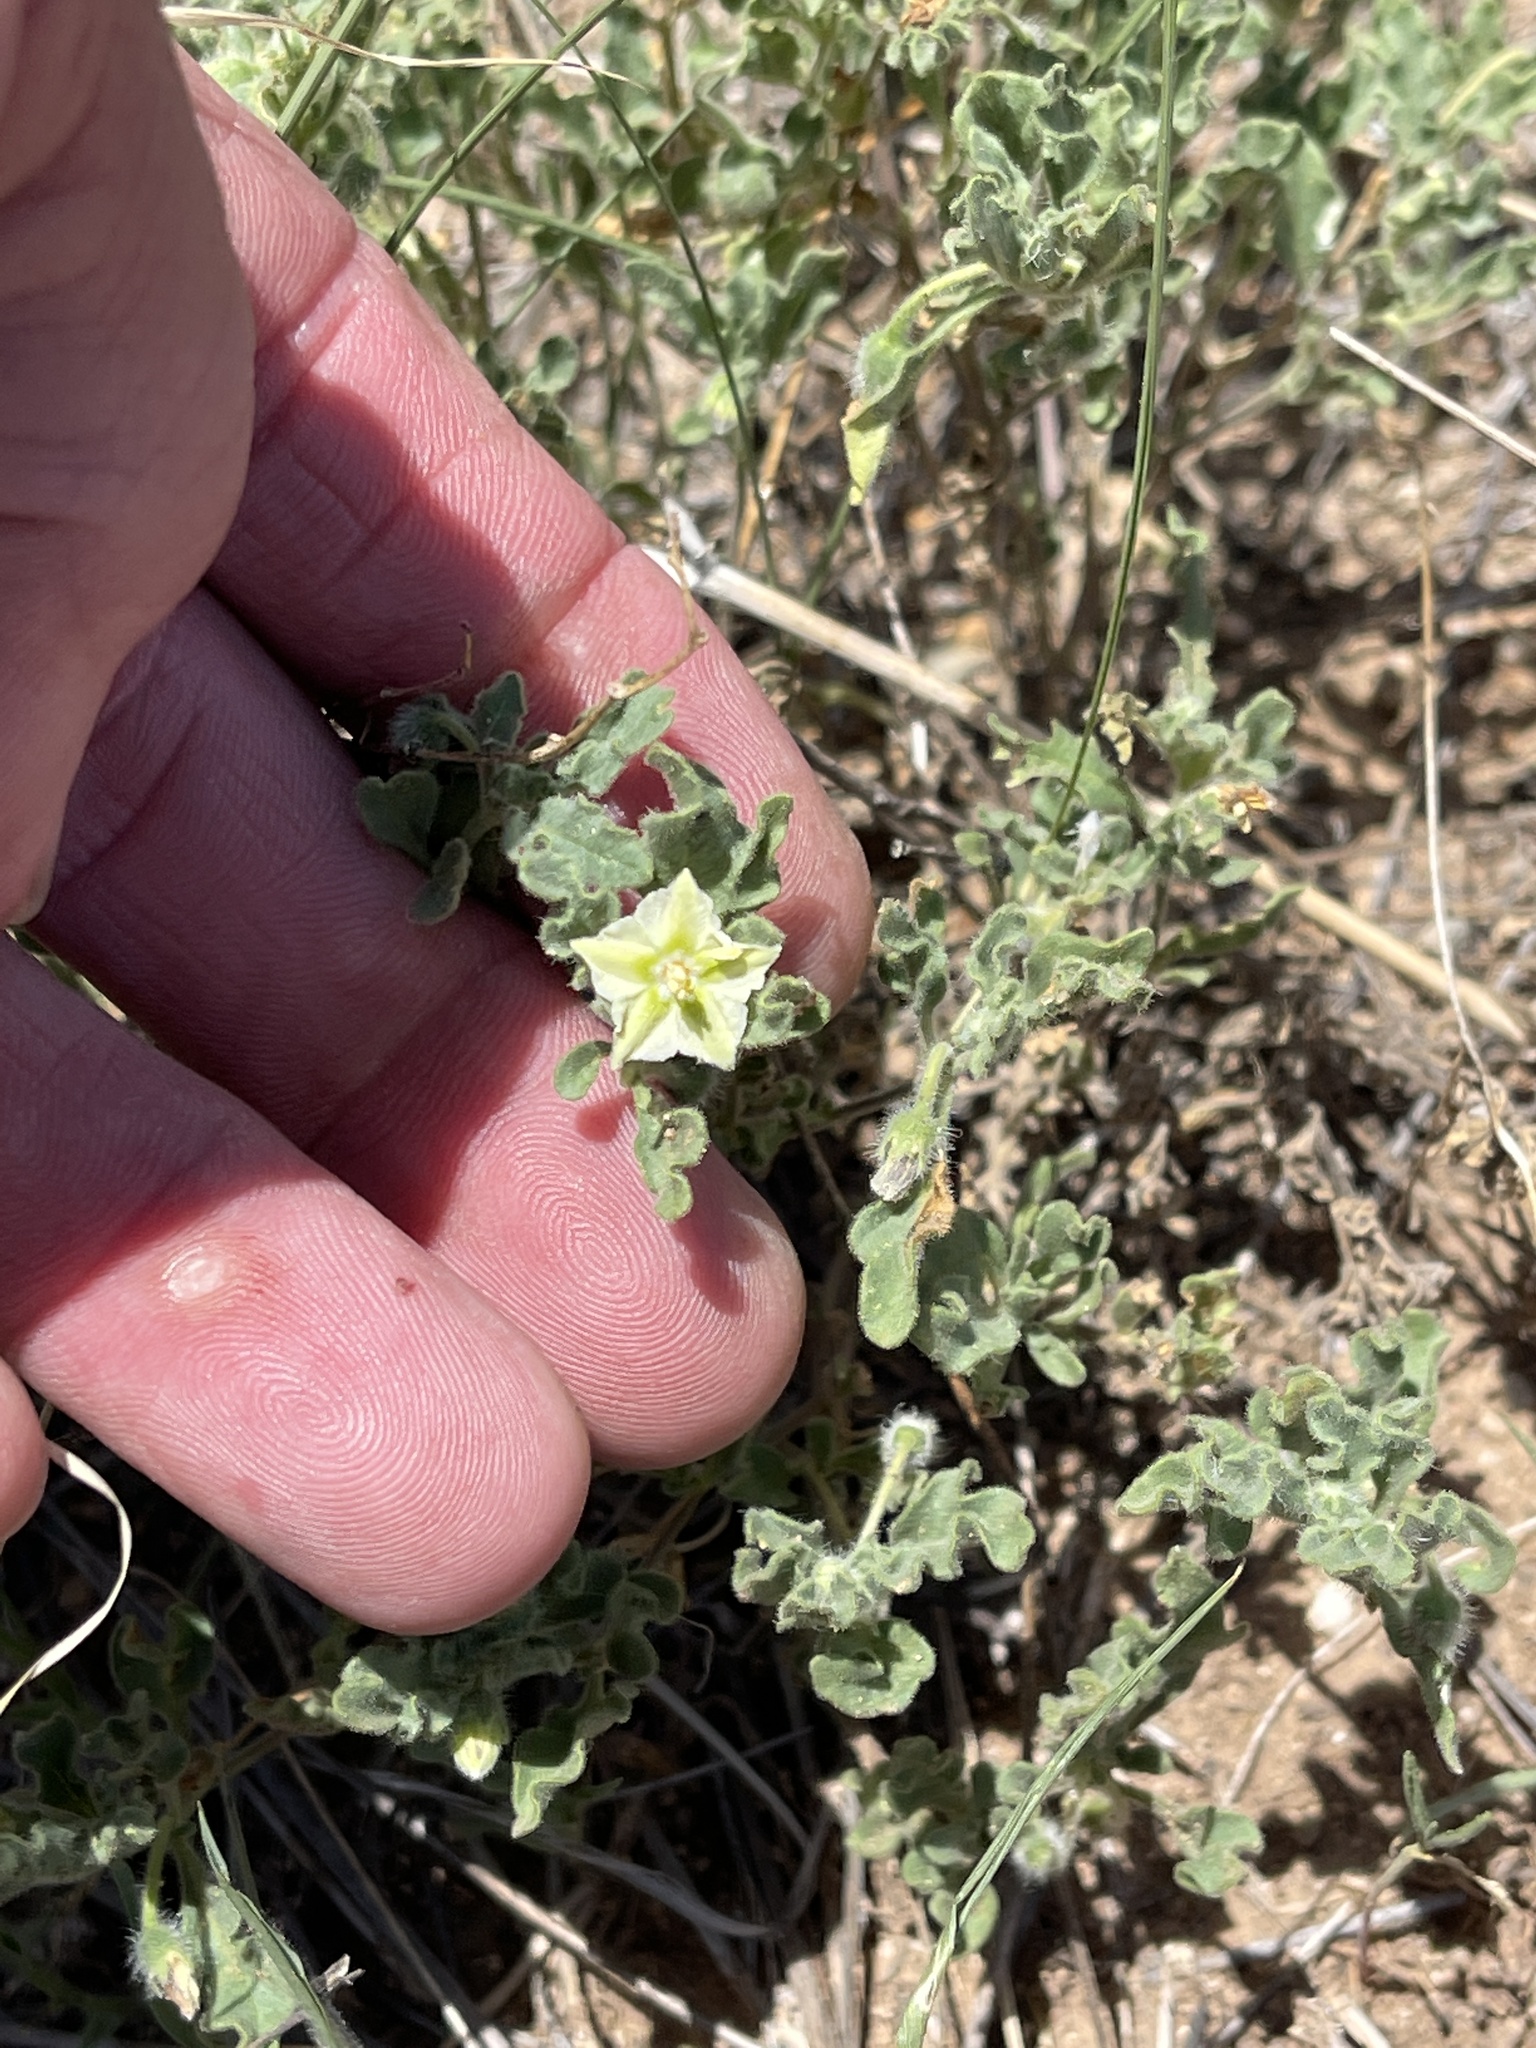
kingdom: Plantae
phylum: Tracheophyta
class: Magnoliopsida
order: Solanales
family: Solanaceae
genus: Chamaesaracha
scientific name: Chamaesaracha sordida
